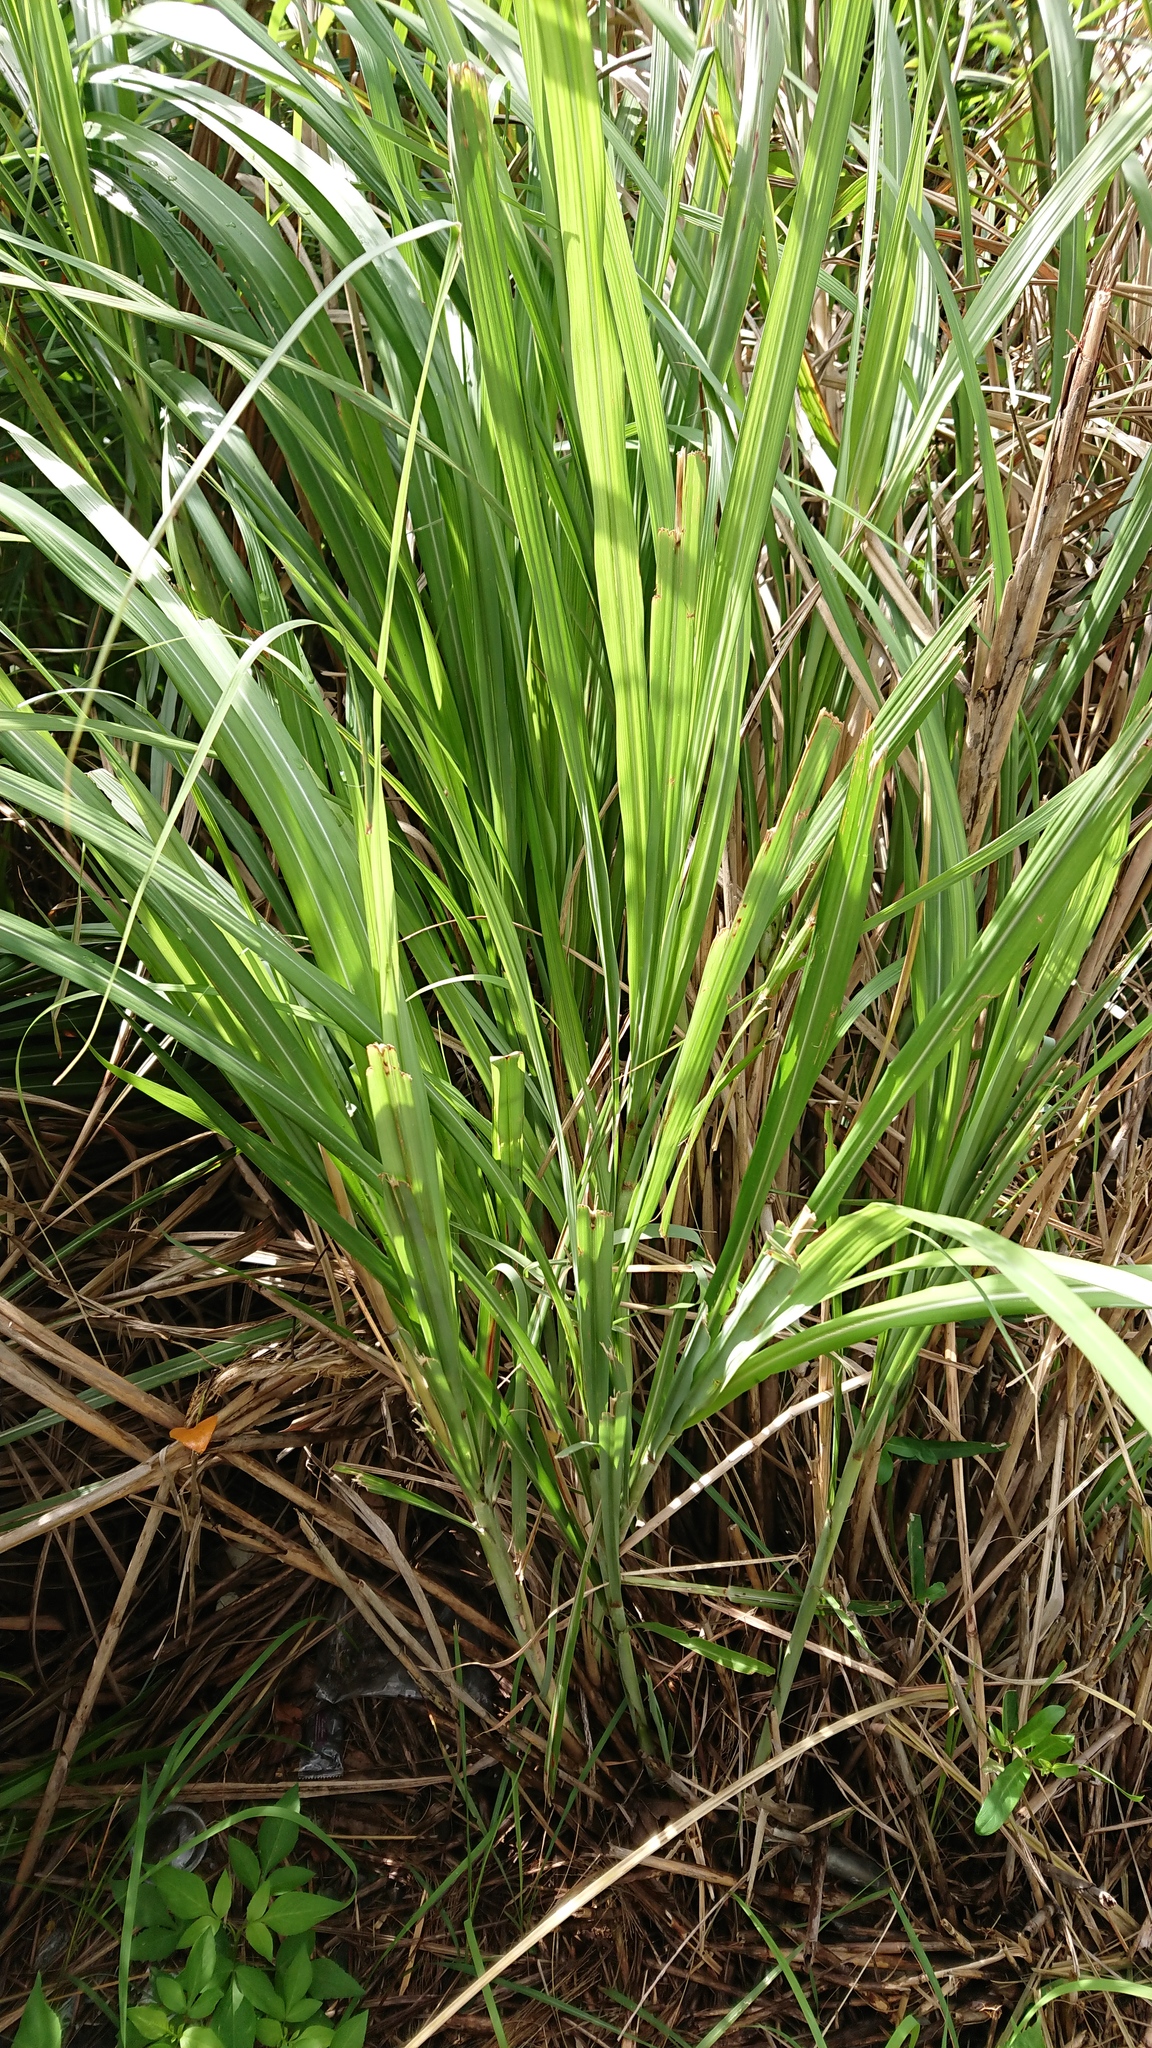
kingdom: Plantae
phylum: Tracheophyta
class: Liliopsida
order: Poales
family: Poaceae
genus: Miscanthus
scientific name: Miscanthus sinensis
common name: Chinese silvergrass
